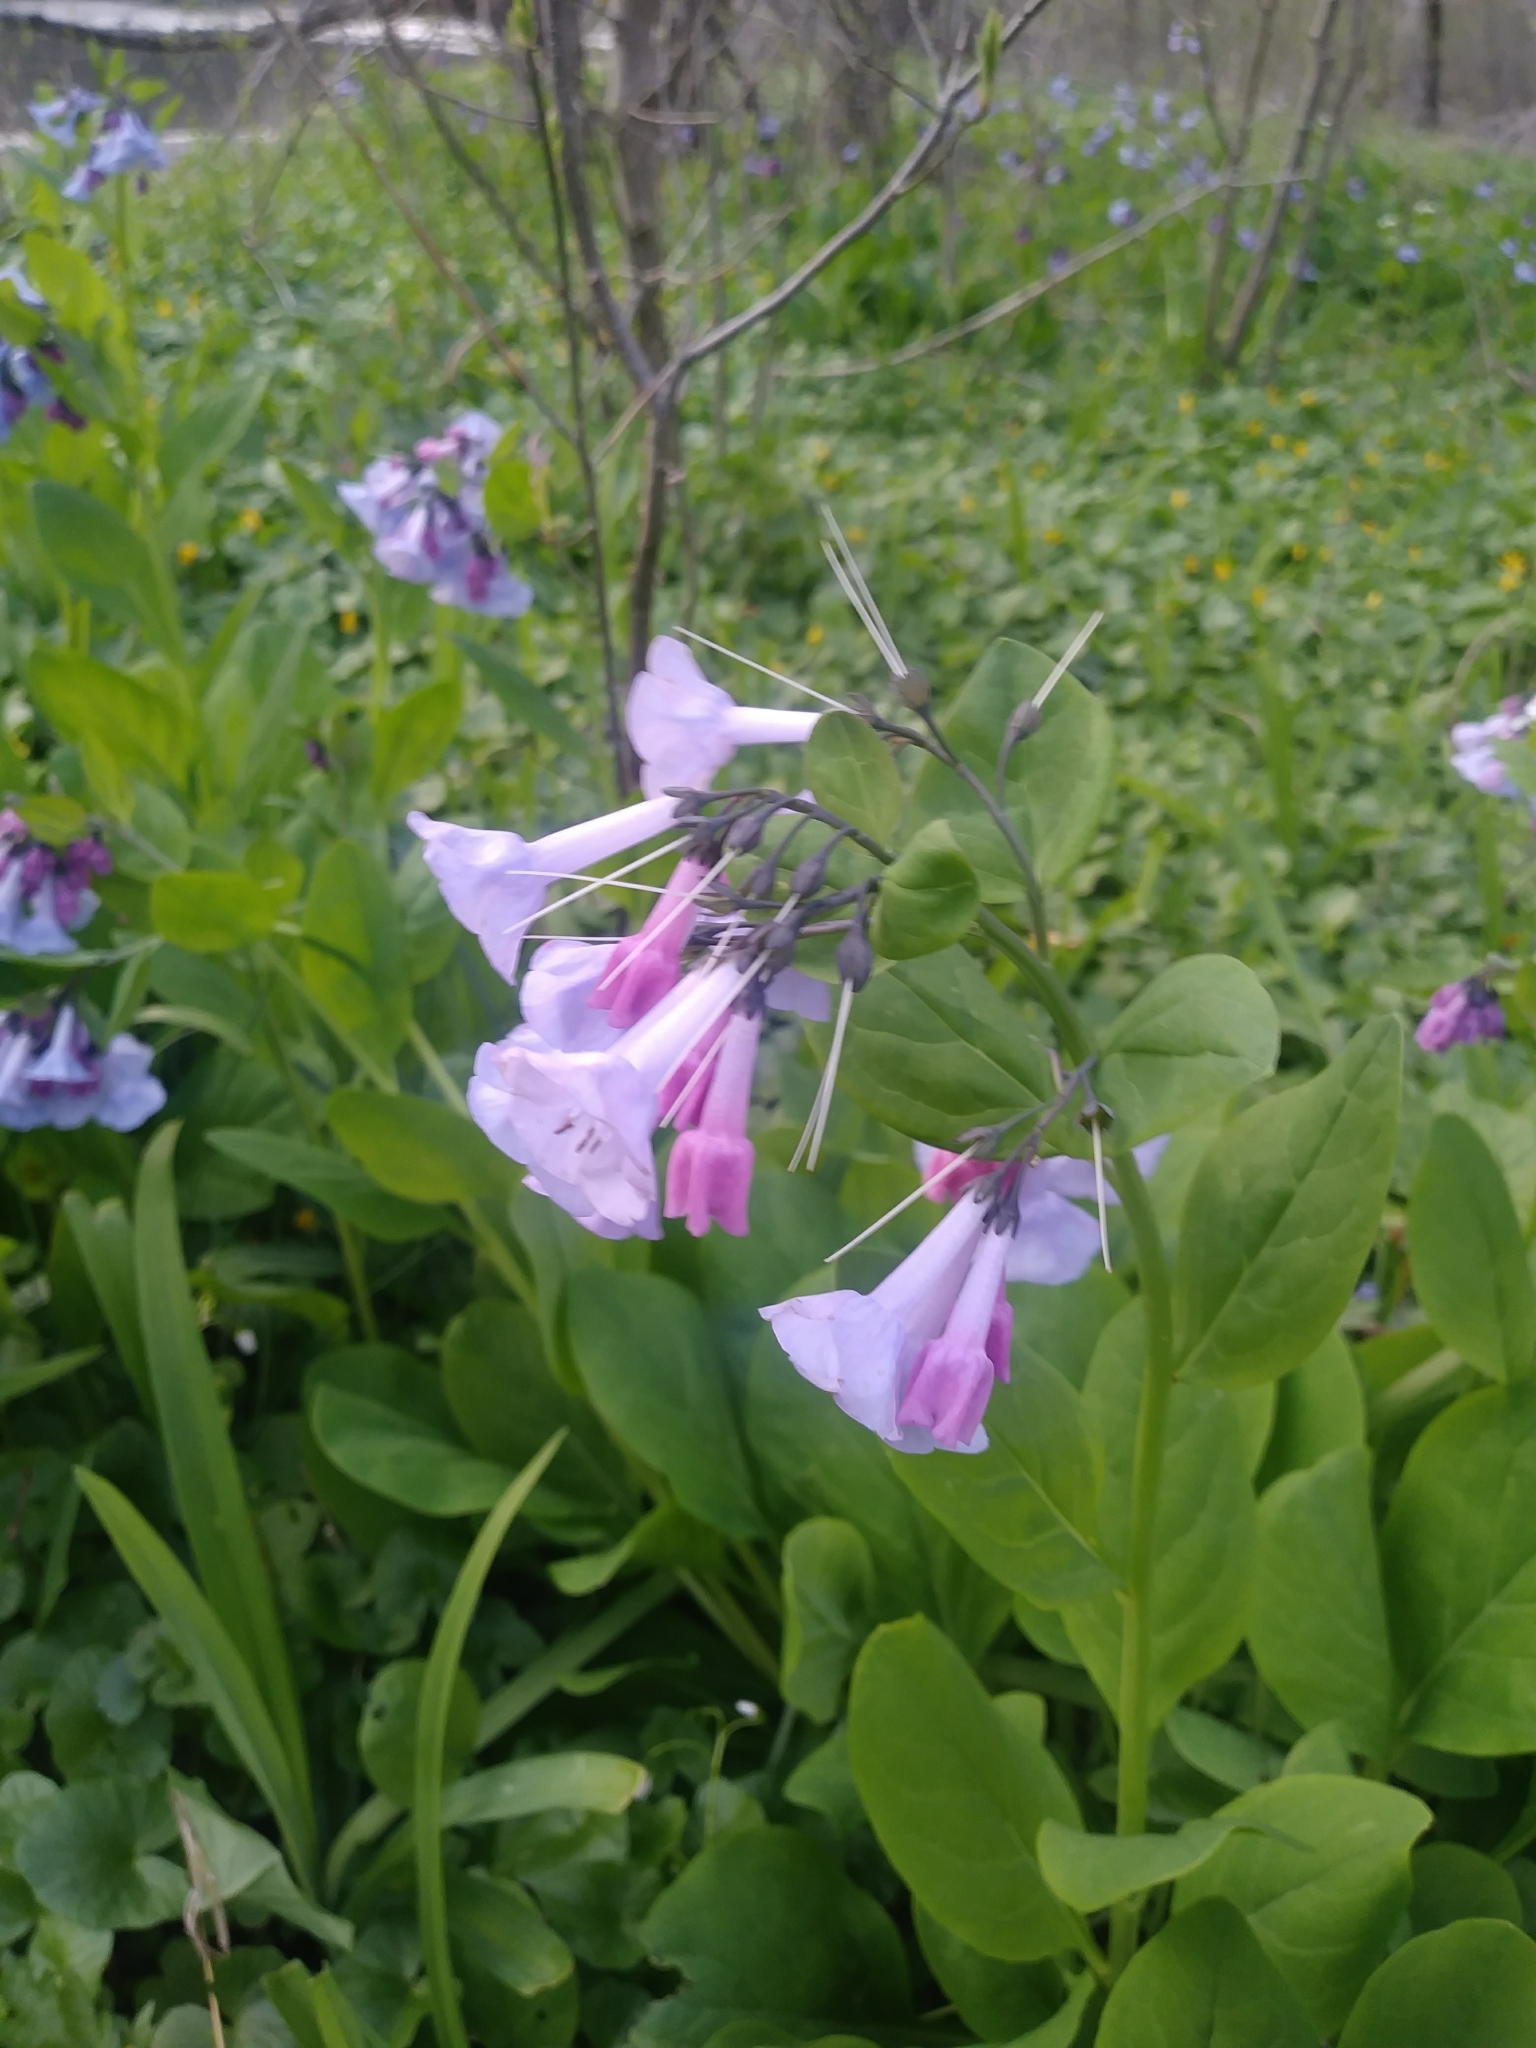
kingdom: Plantae
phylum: Tracheophyta
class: Magnoliopsida
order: Boraginales
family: Boraginaceae
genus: Mertensia
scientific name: Mertensia virginica
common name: Virginia bluebells
